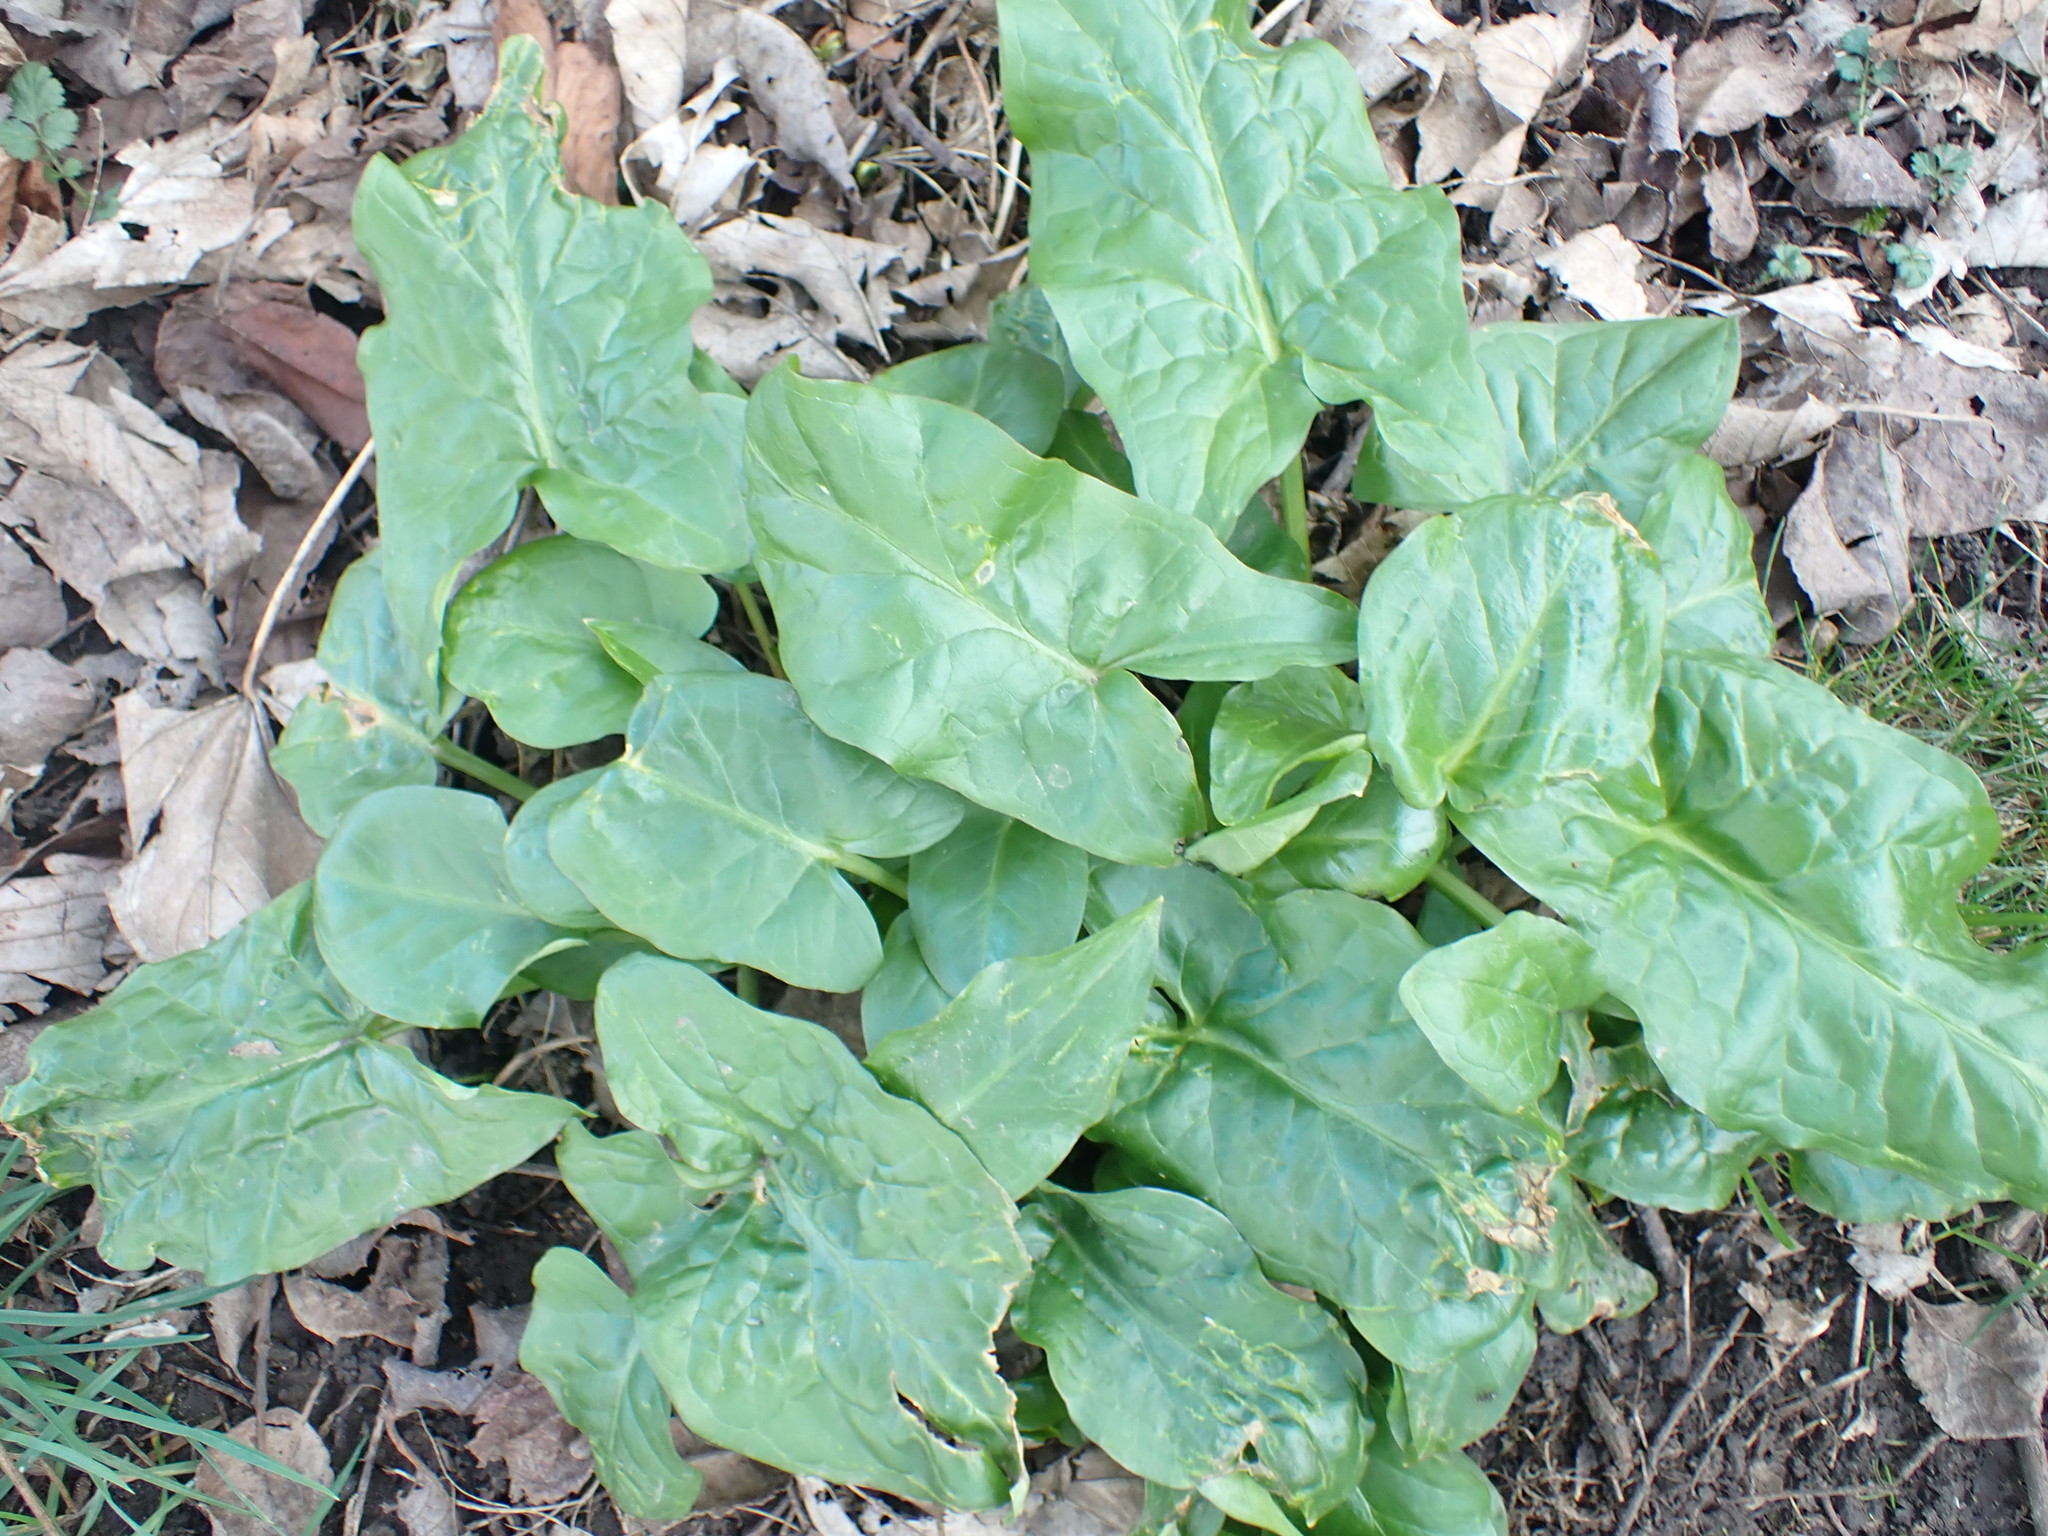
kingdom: Plantae
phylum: Tracheophyta
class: Liliopsida
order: Alismatales
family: Araceae
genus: Arum
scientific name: Arum maculatum
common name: Lords-and-ladies
